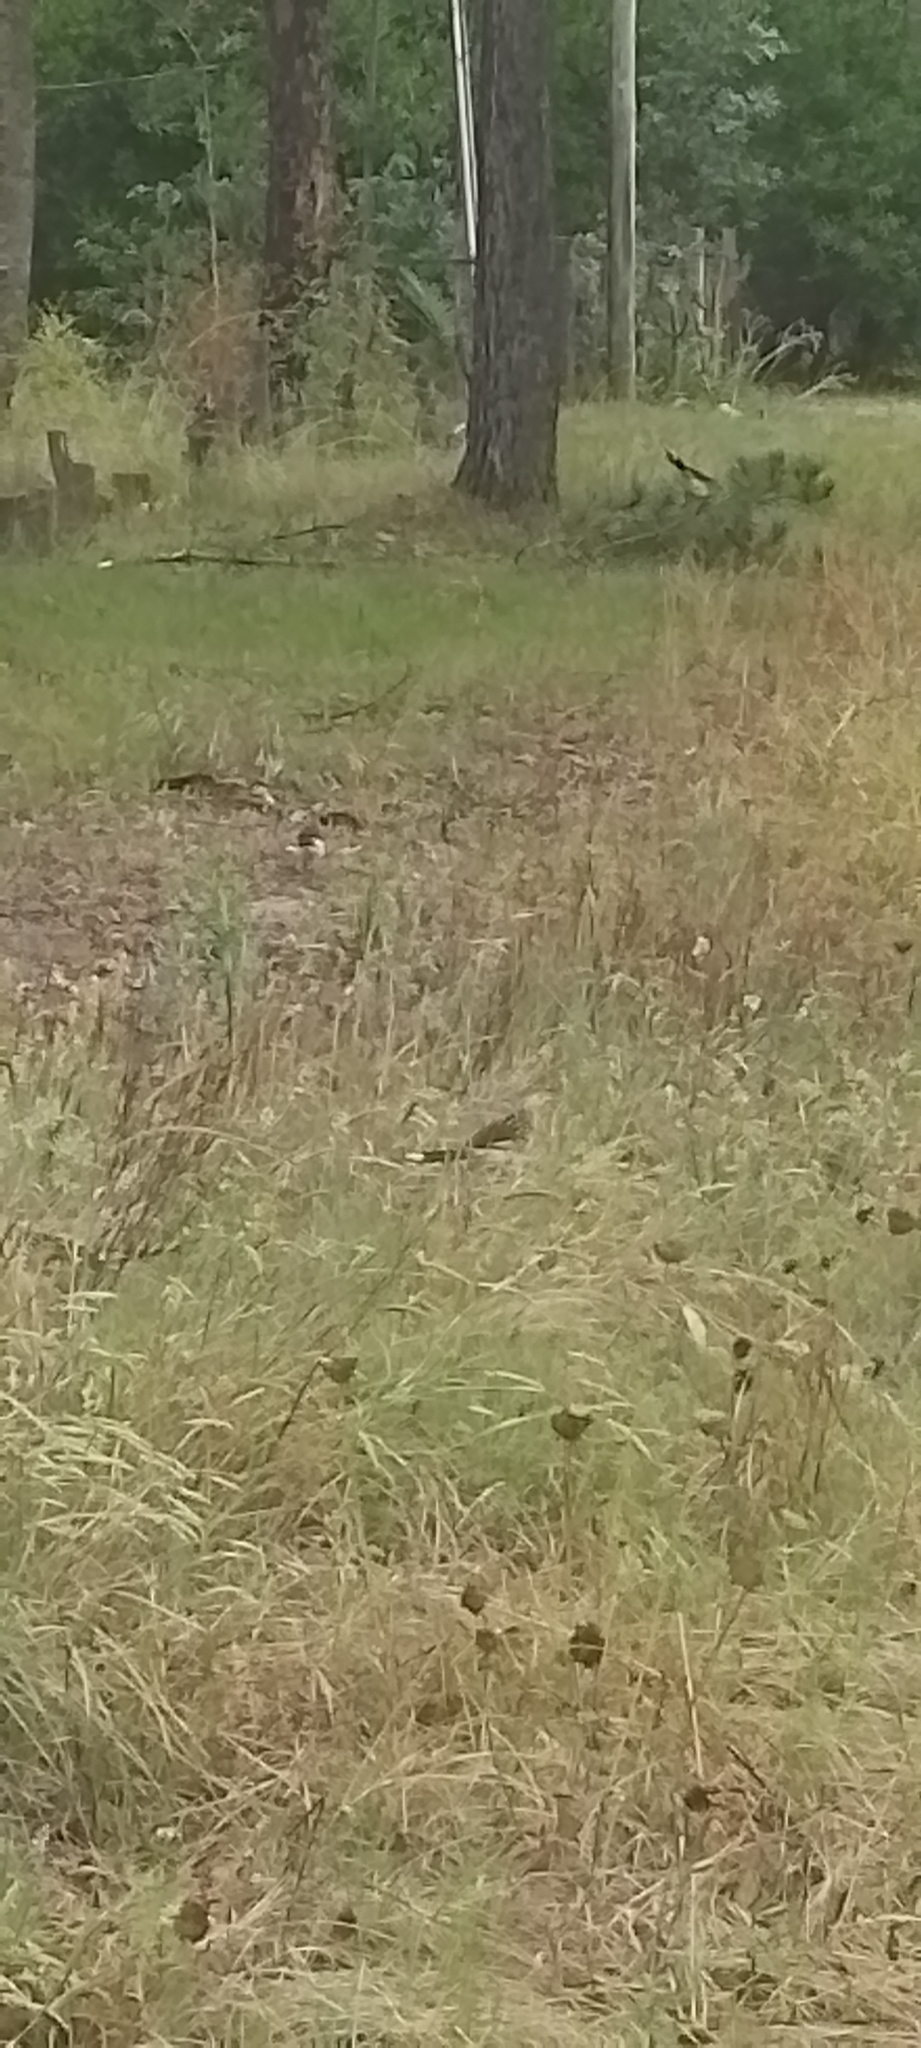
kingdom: Animalia
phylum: Chordata
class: Aves
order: Cuculiformes
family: Cuculidae
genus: Guira
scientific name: Guira guira
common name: Guira cuckoo
